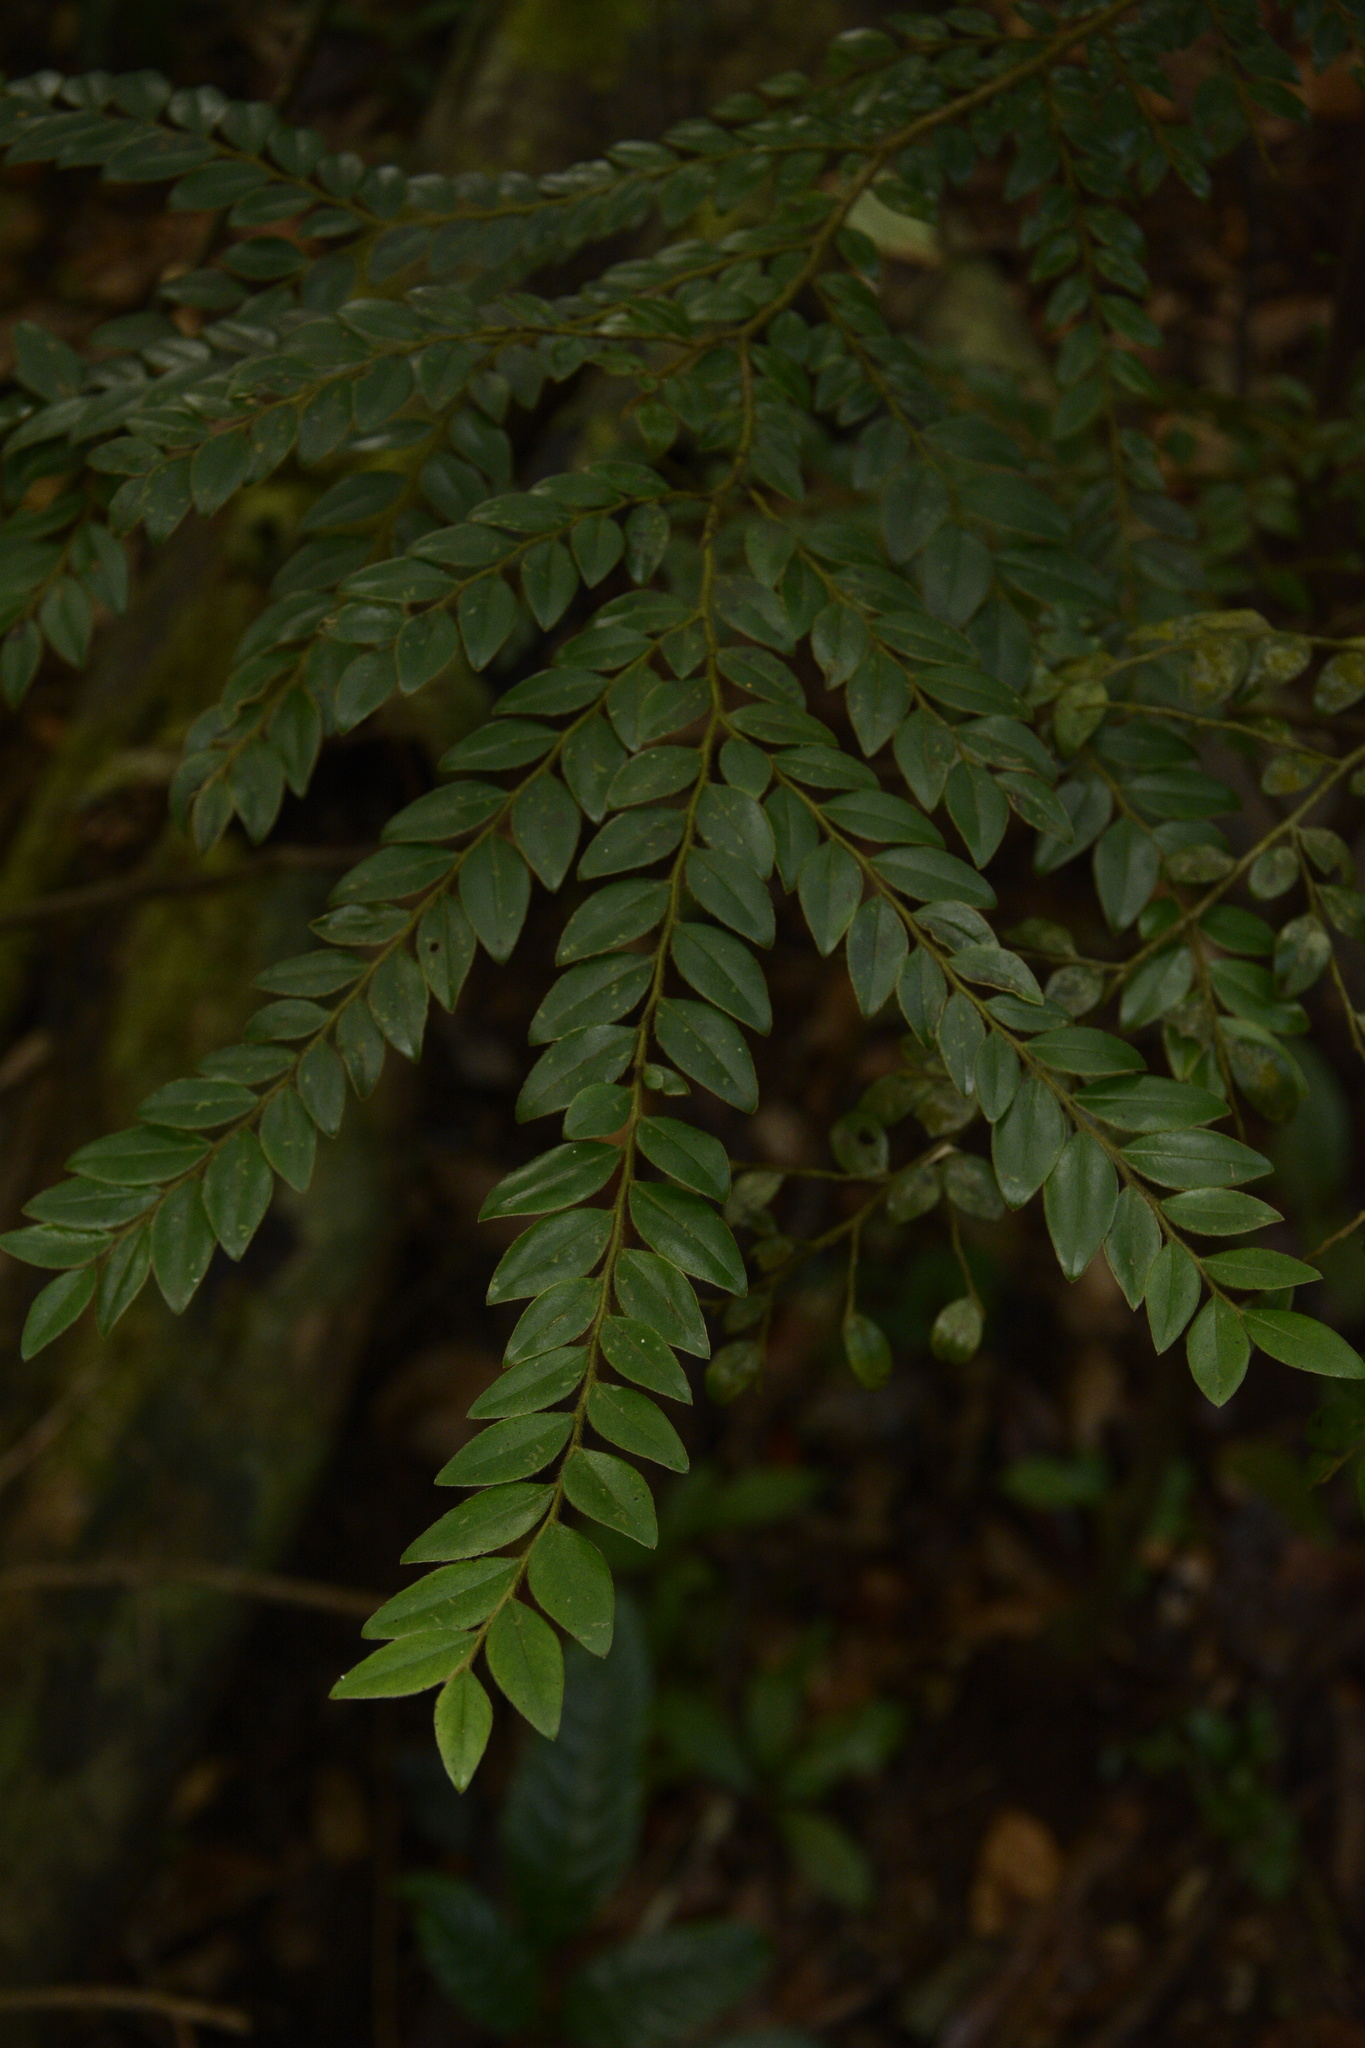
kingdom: Plantae
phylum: Tracheophyta
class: Magnoliopsida
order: Ericales
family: Ebenaceae
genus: Diospyros
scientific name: Diospyros buxifolia
